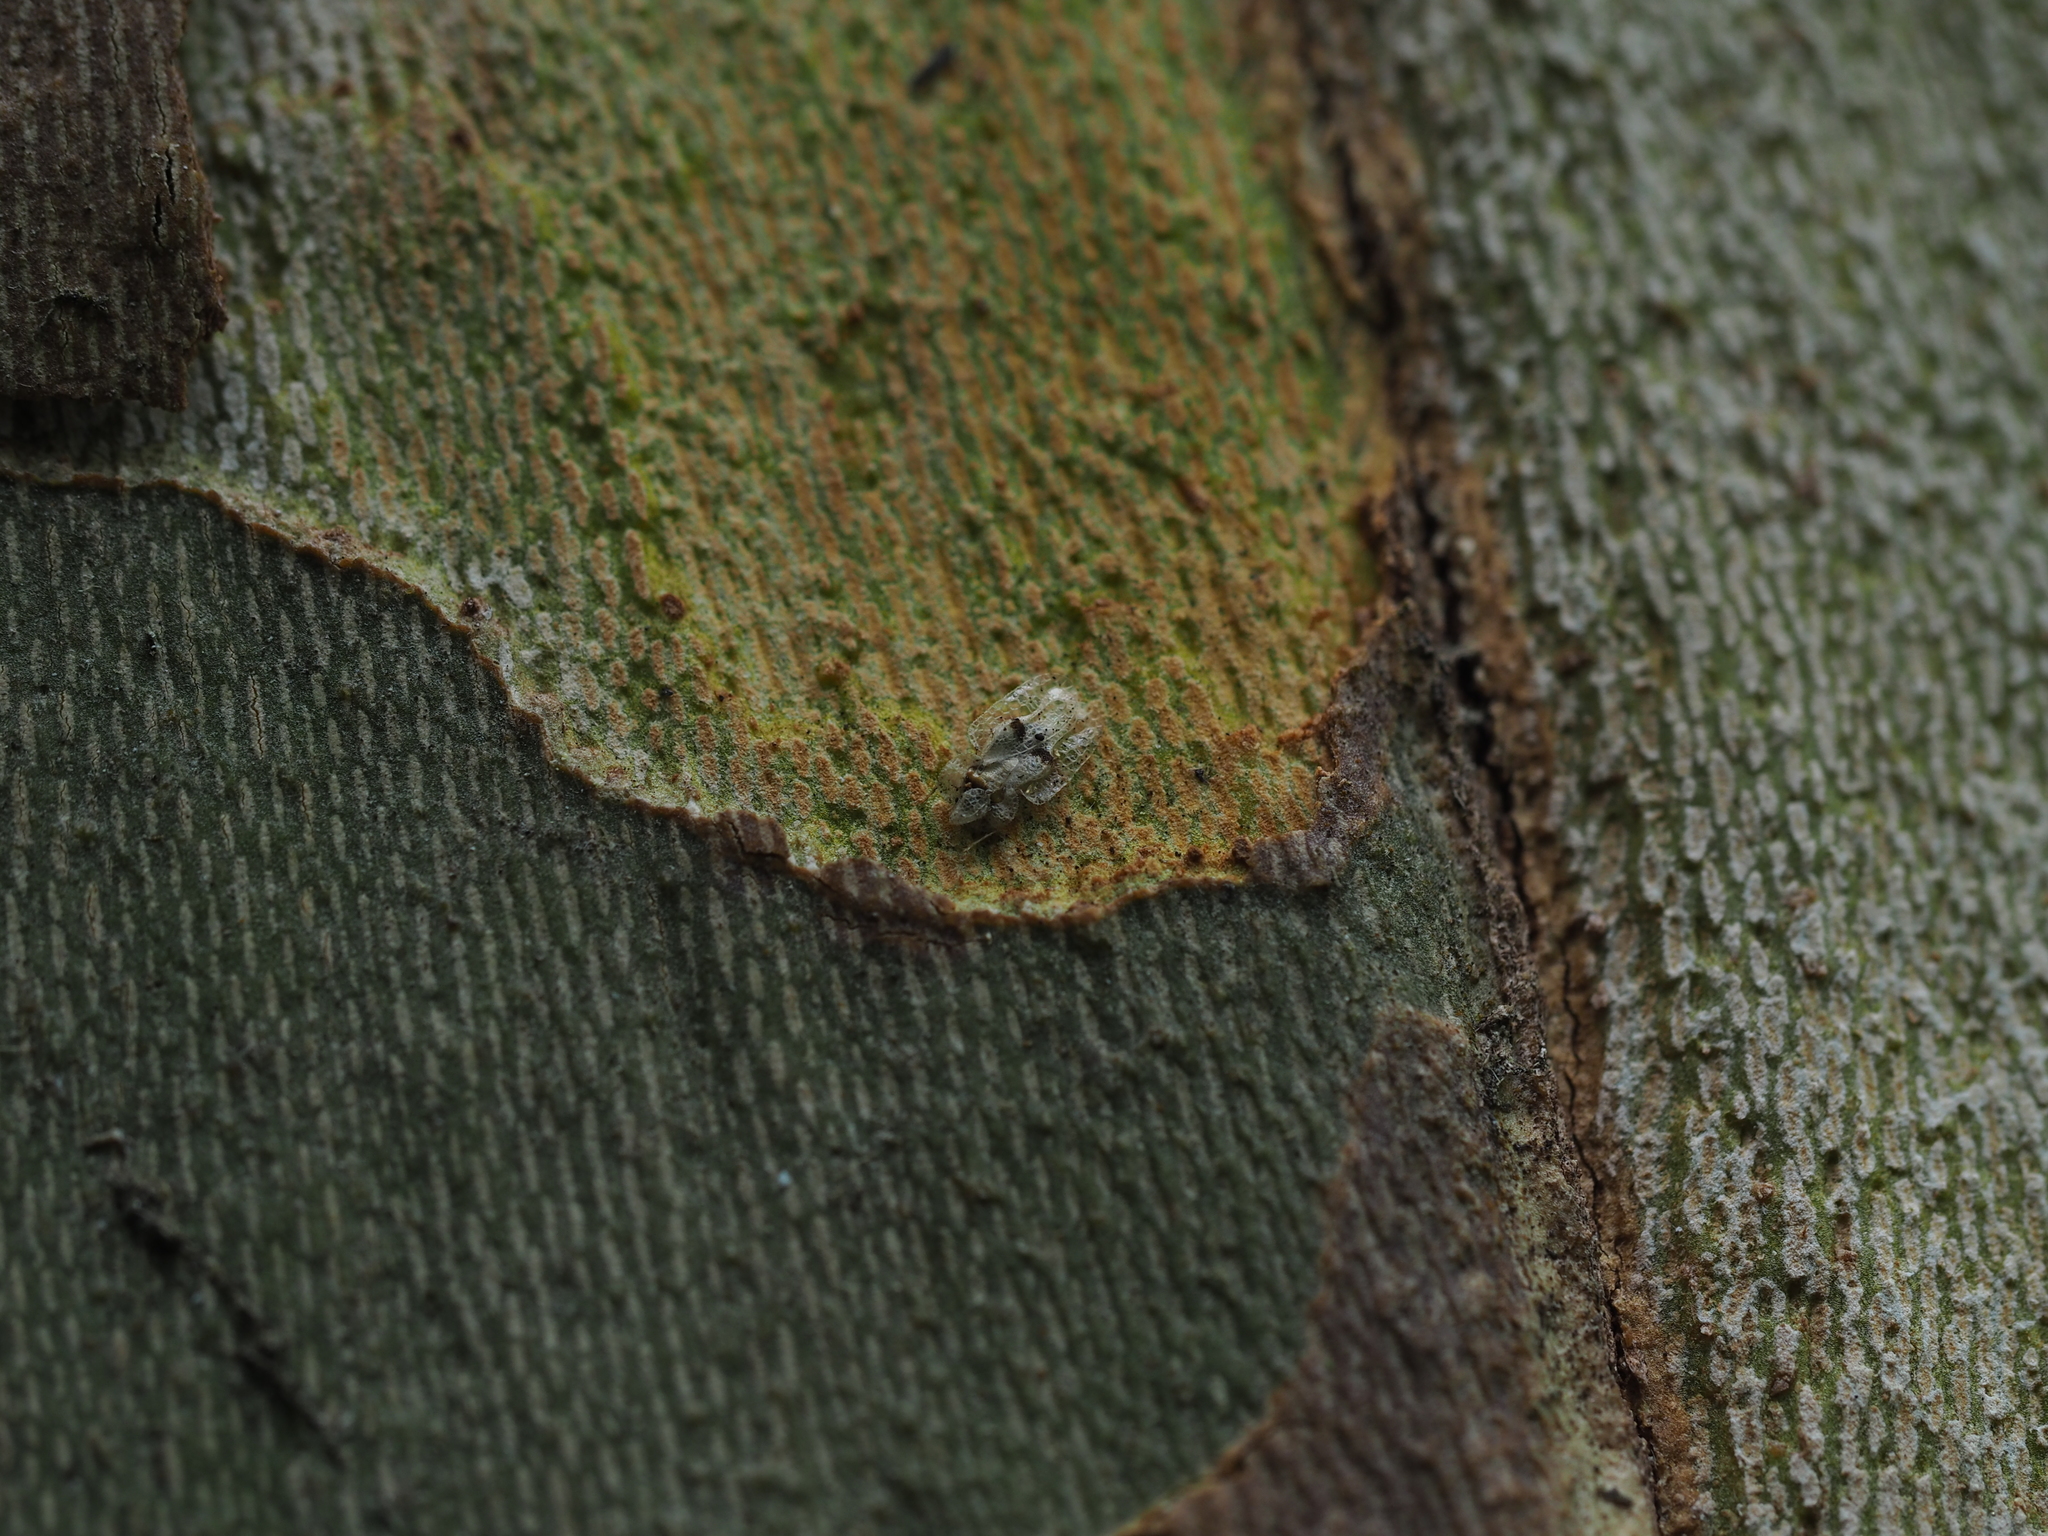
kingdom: Animalia
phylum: Arthropoda
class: Insecta
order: Hemiptera
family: Tingidae
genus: Corythucha
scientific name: Corythucha ciliata
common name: Sycamore lace bug
